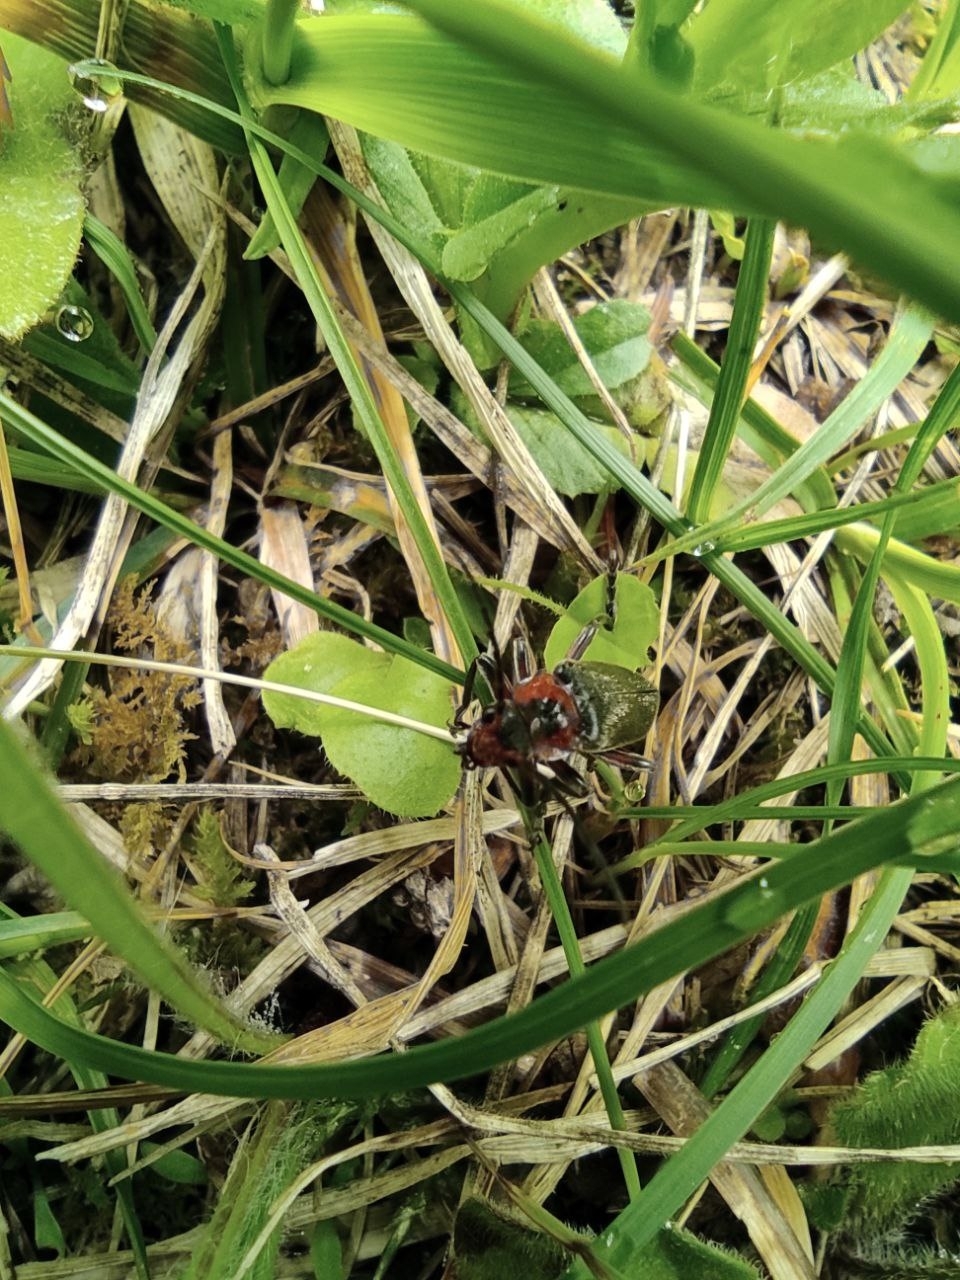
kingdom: Animalia
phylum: Arthropoda
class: Insecta
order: Coleoptera
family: Cantharidae
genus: Cantharis
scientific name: Cantharis rustica
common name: Soldier beetle
